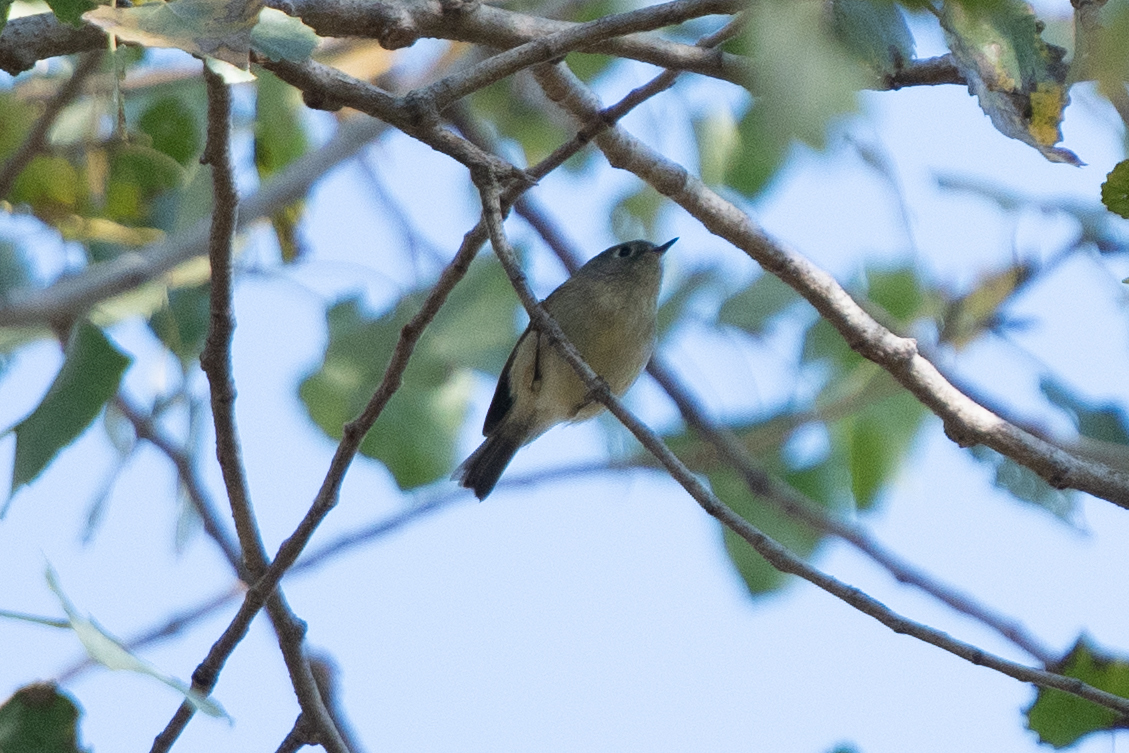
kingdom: Animalia
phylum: Chordata
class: Aves
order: Passeriformes
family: Regulidae
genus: Regulus
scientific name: Regulus calendula
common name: Ruby-crowned kinglet
